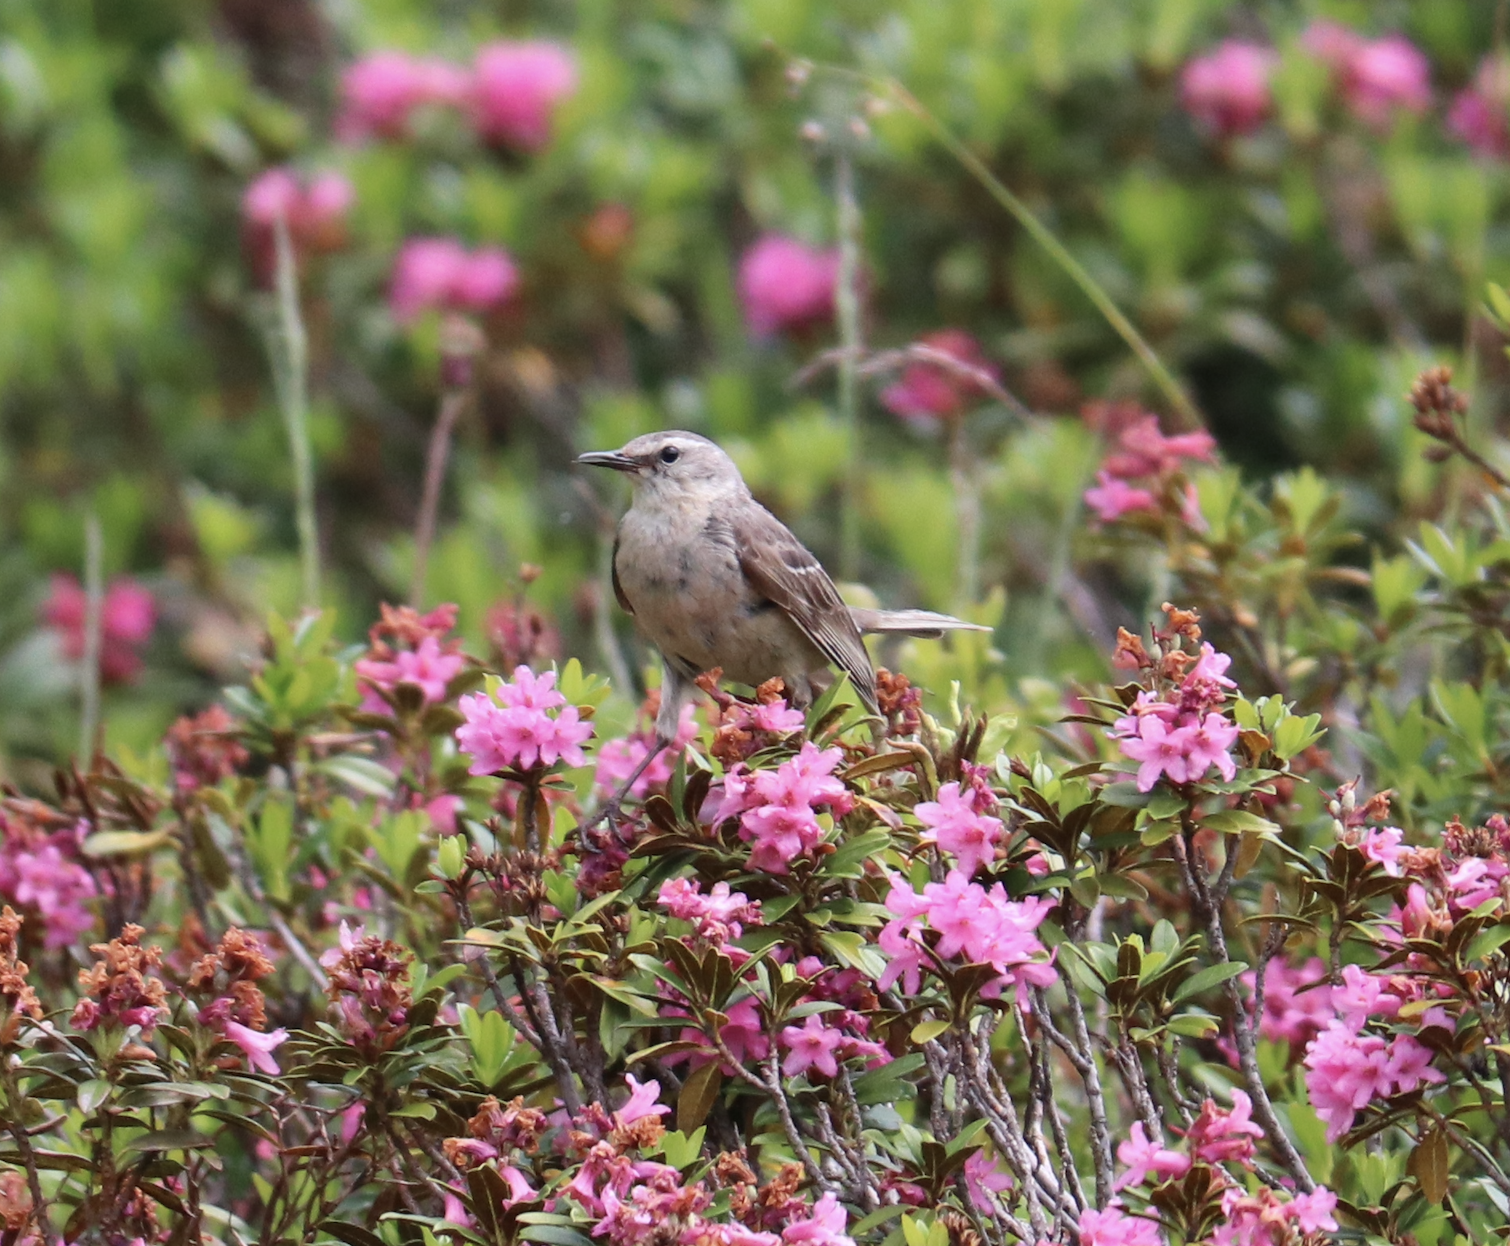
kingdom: Animalia
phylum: Chordata
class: Aves
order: Passeriformes
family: Motacillidae
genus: Anthus
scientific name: Anthus spinoletta
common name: Water pipit
